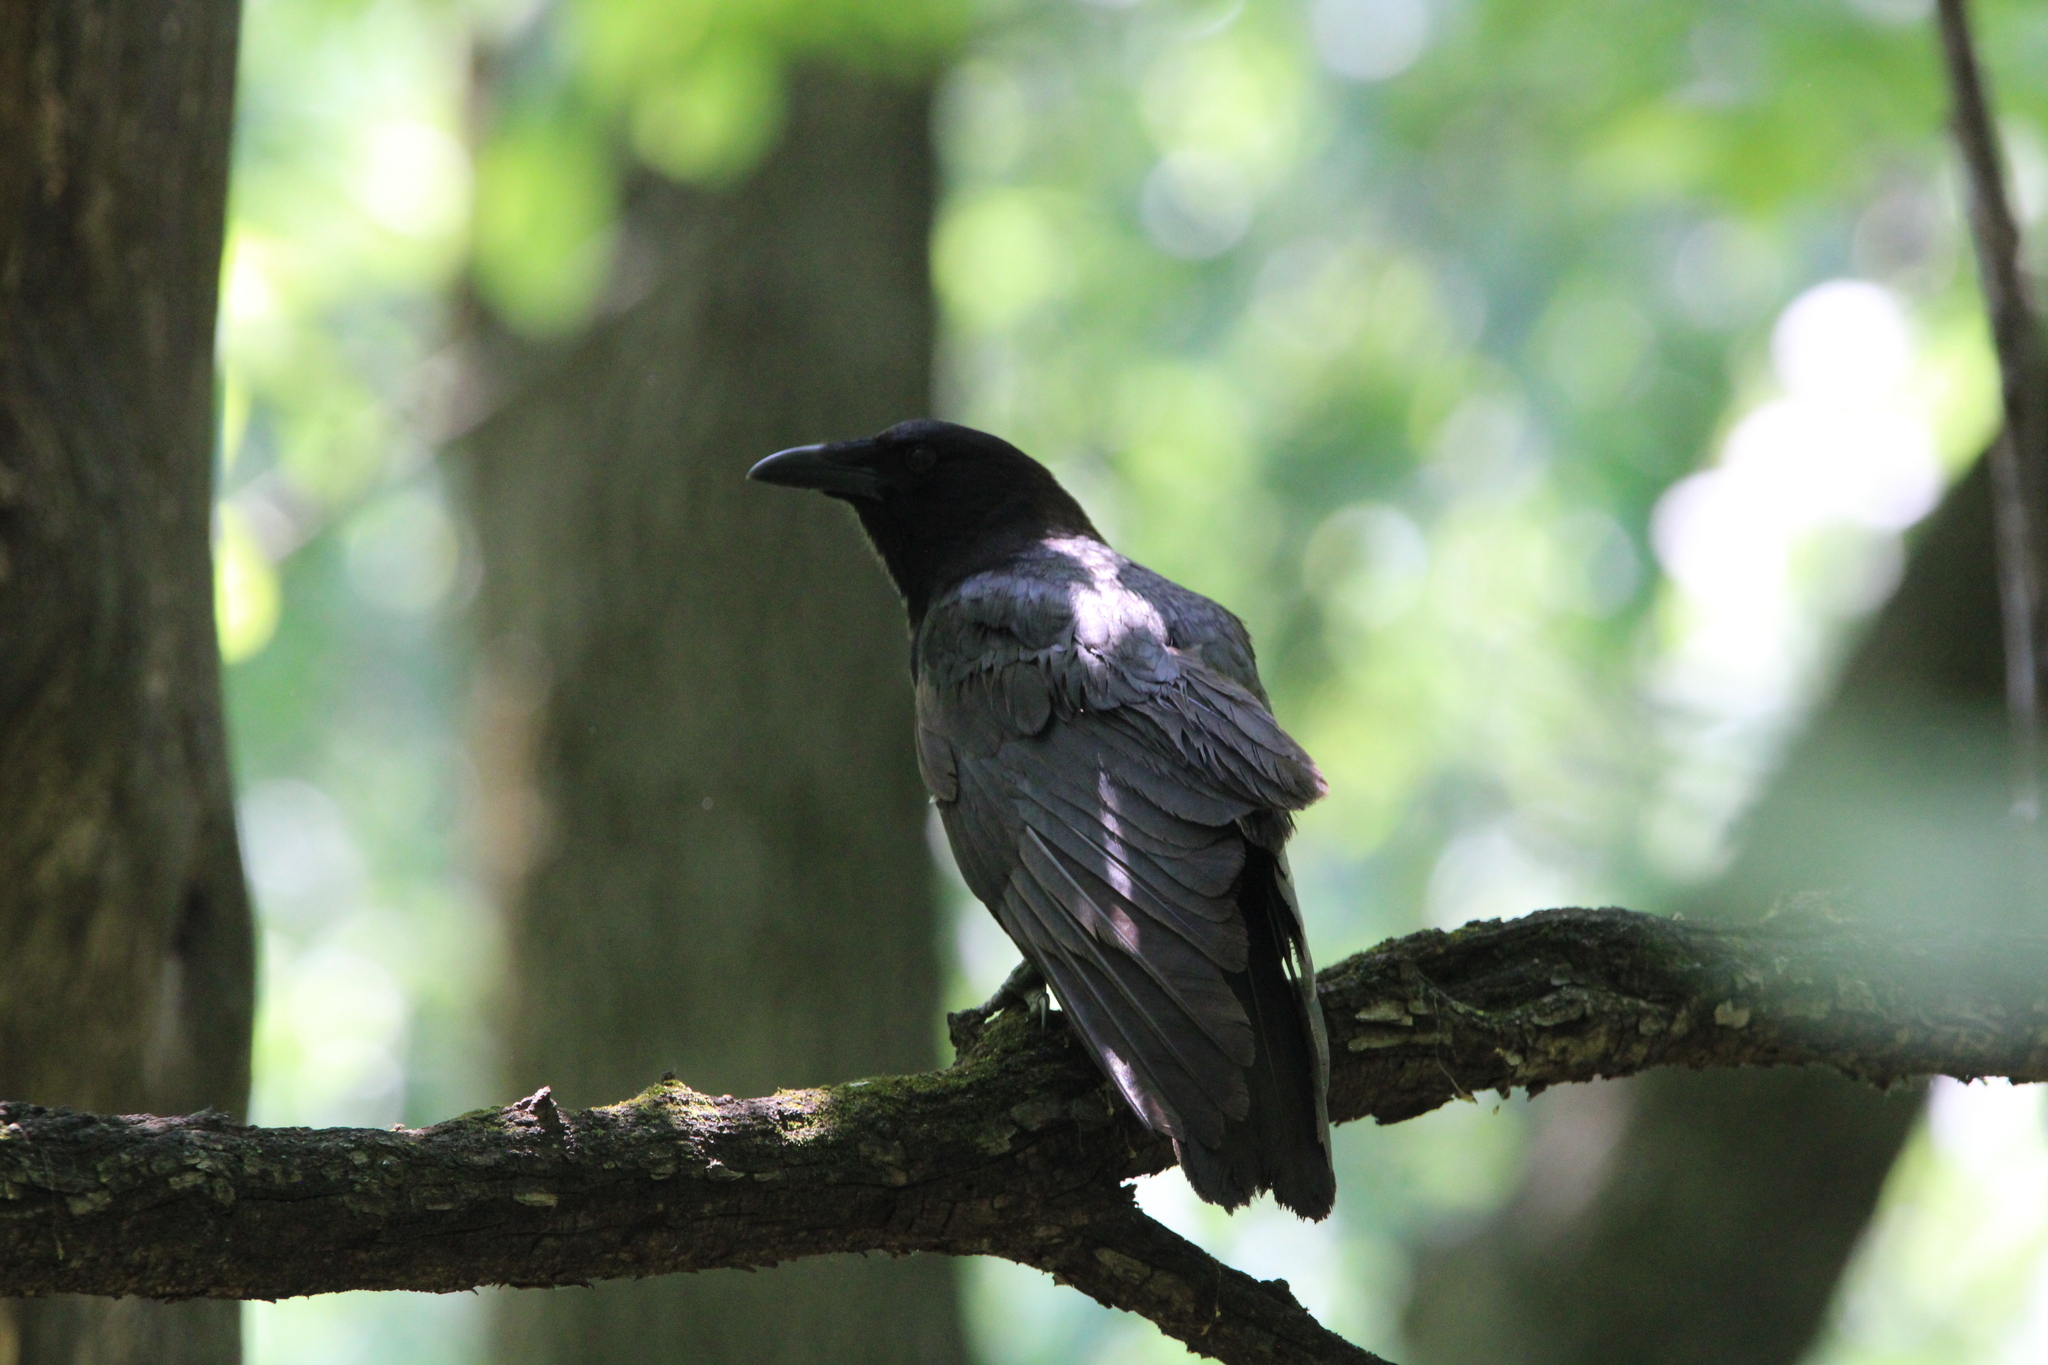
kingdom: Animalia
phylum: Chordata
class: Aves
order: Passeriformes
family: Corvidae
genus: Corvus
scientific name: Corvus brachyrhynchos
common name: American crow
